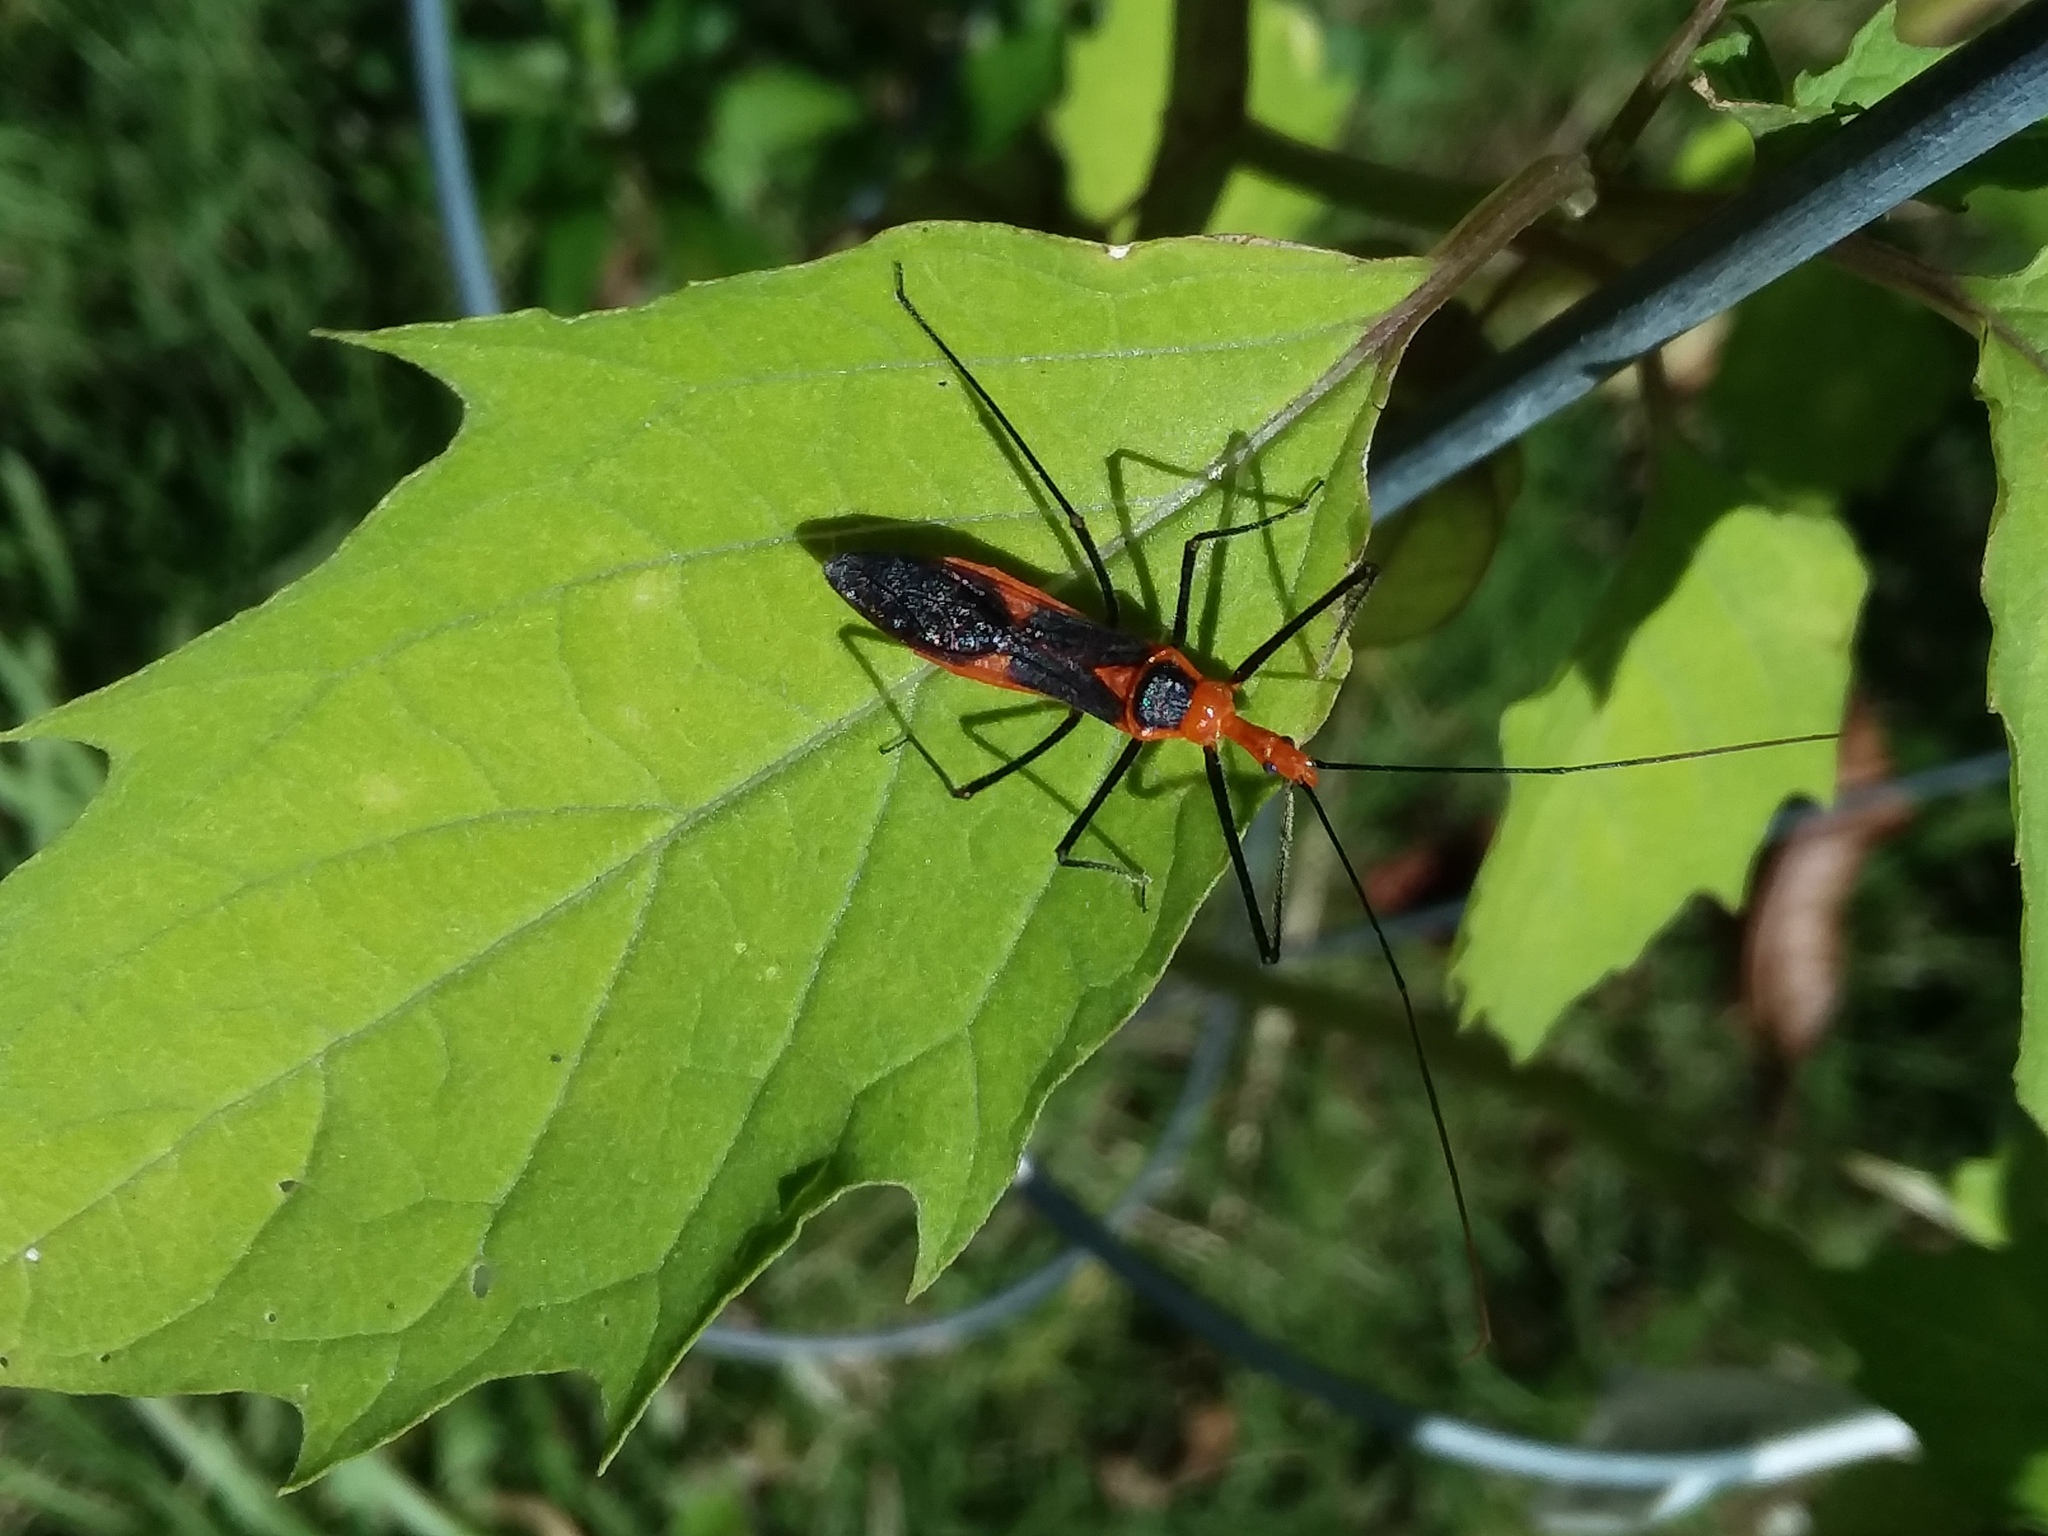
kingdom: Animalia
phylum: Arthropoda
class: Insecta
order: Hemiptera
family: Reduviidae
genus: Zelus
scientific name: Zelus longipes
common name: Milkweed assassin bug
